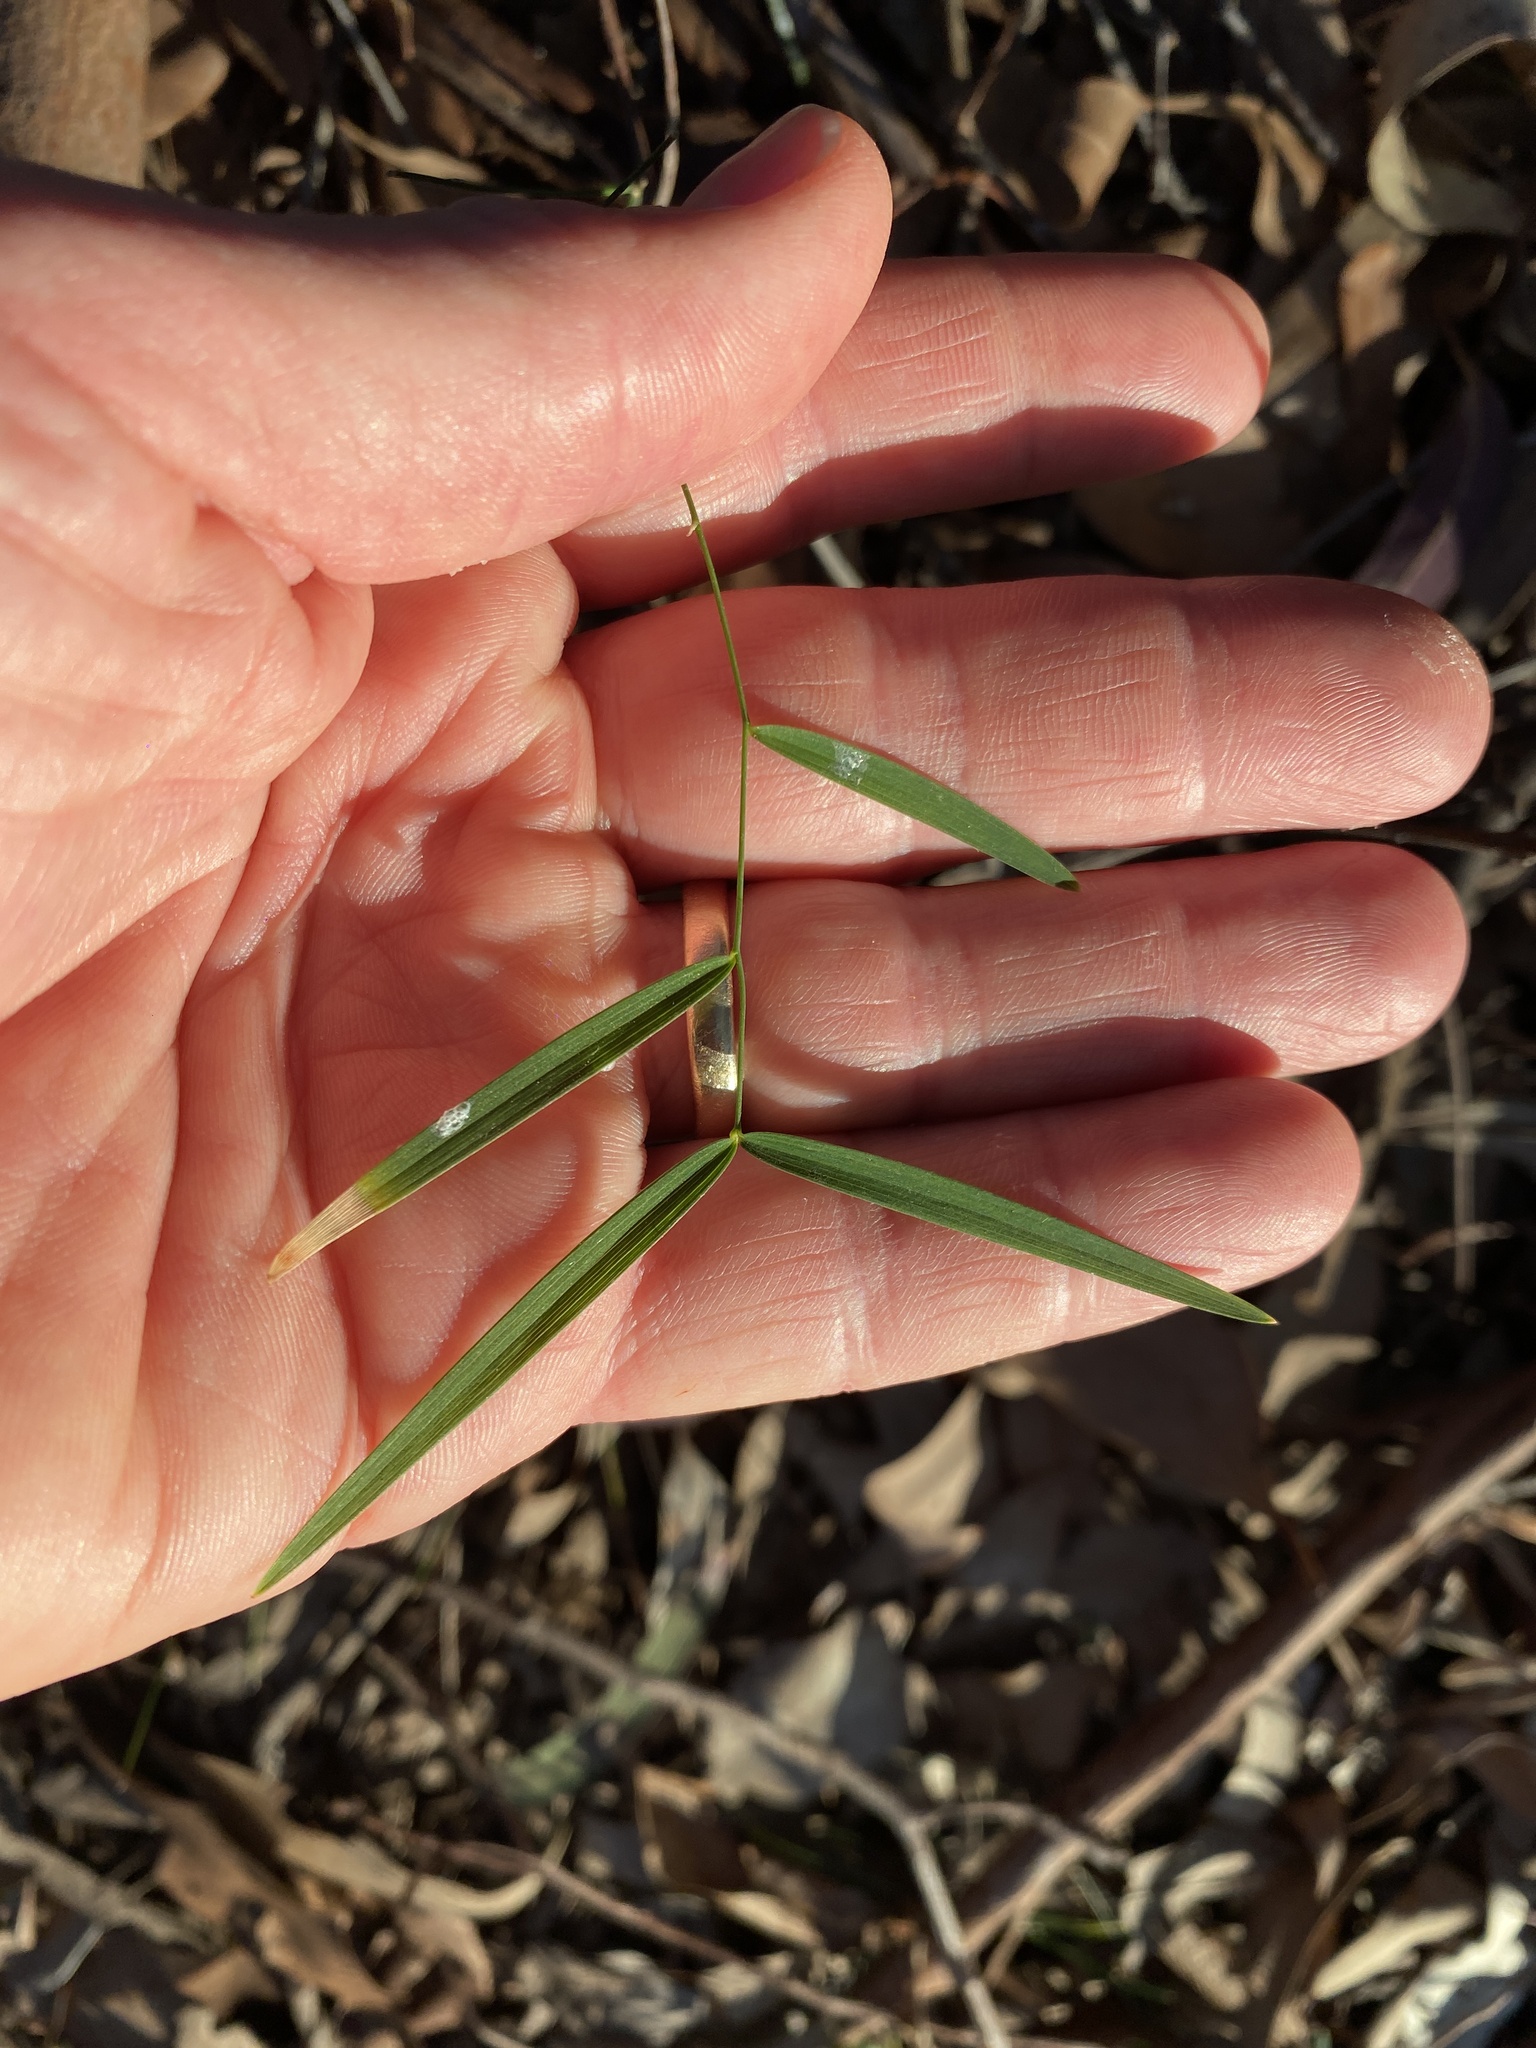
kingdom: Plantae
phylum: Tracheophyta
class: Liliopsida
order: Asparagales
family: Asparagaceae
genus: Eustrephus
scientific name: Eustrephus latifolius
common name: Orangevine
